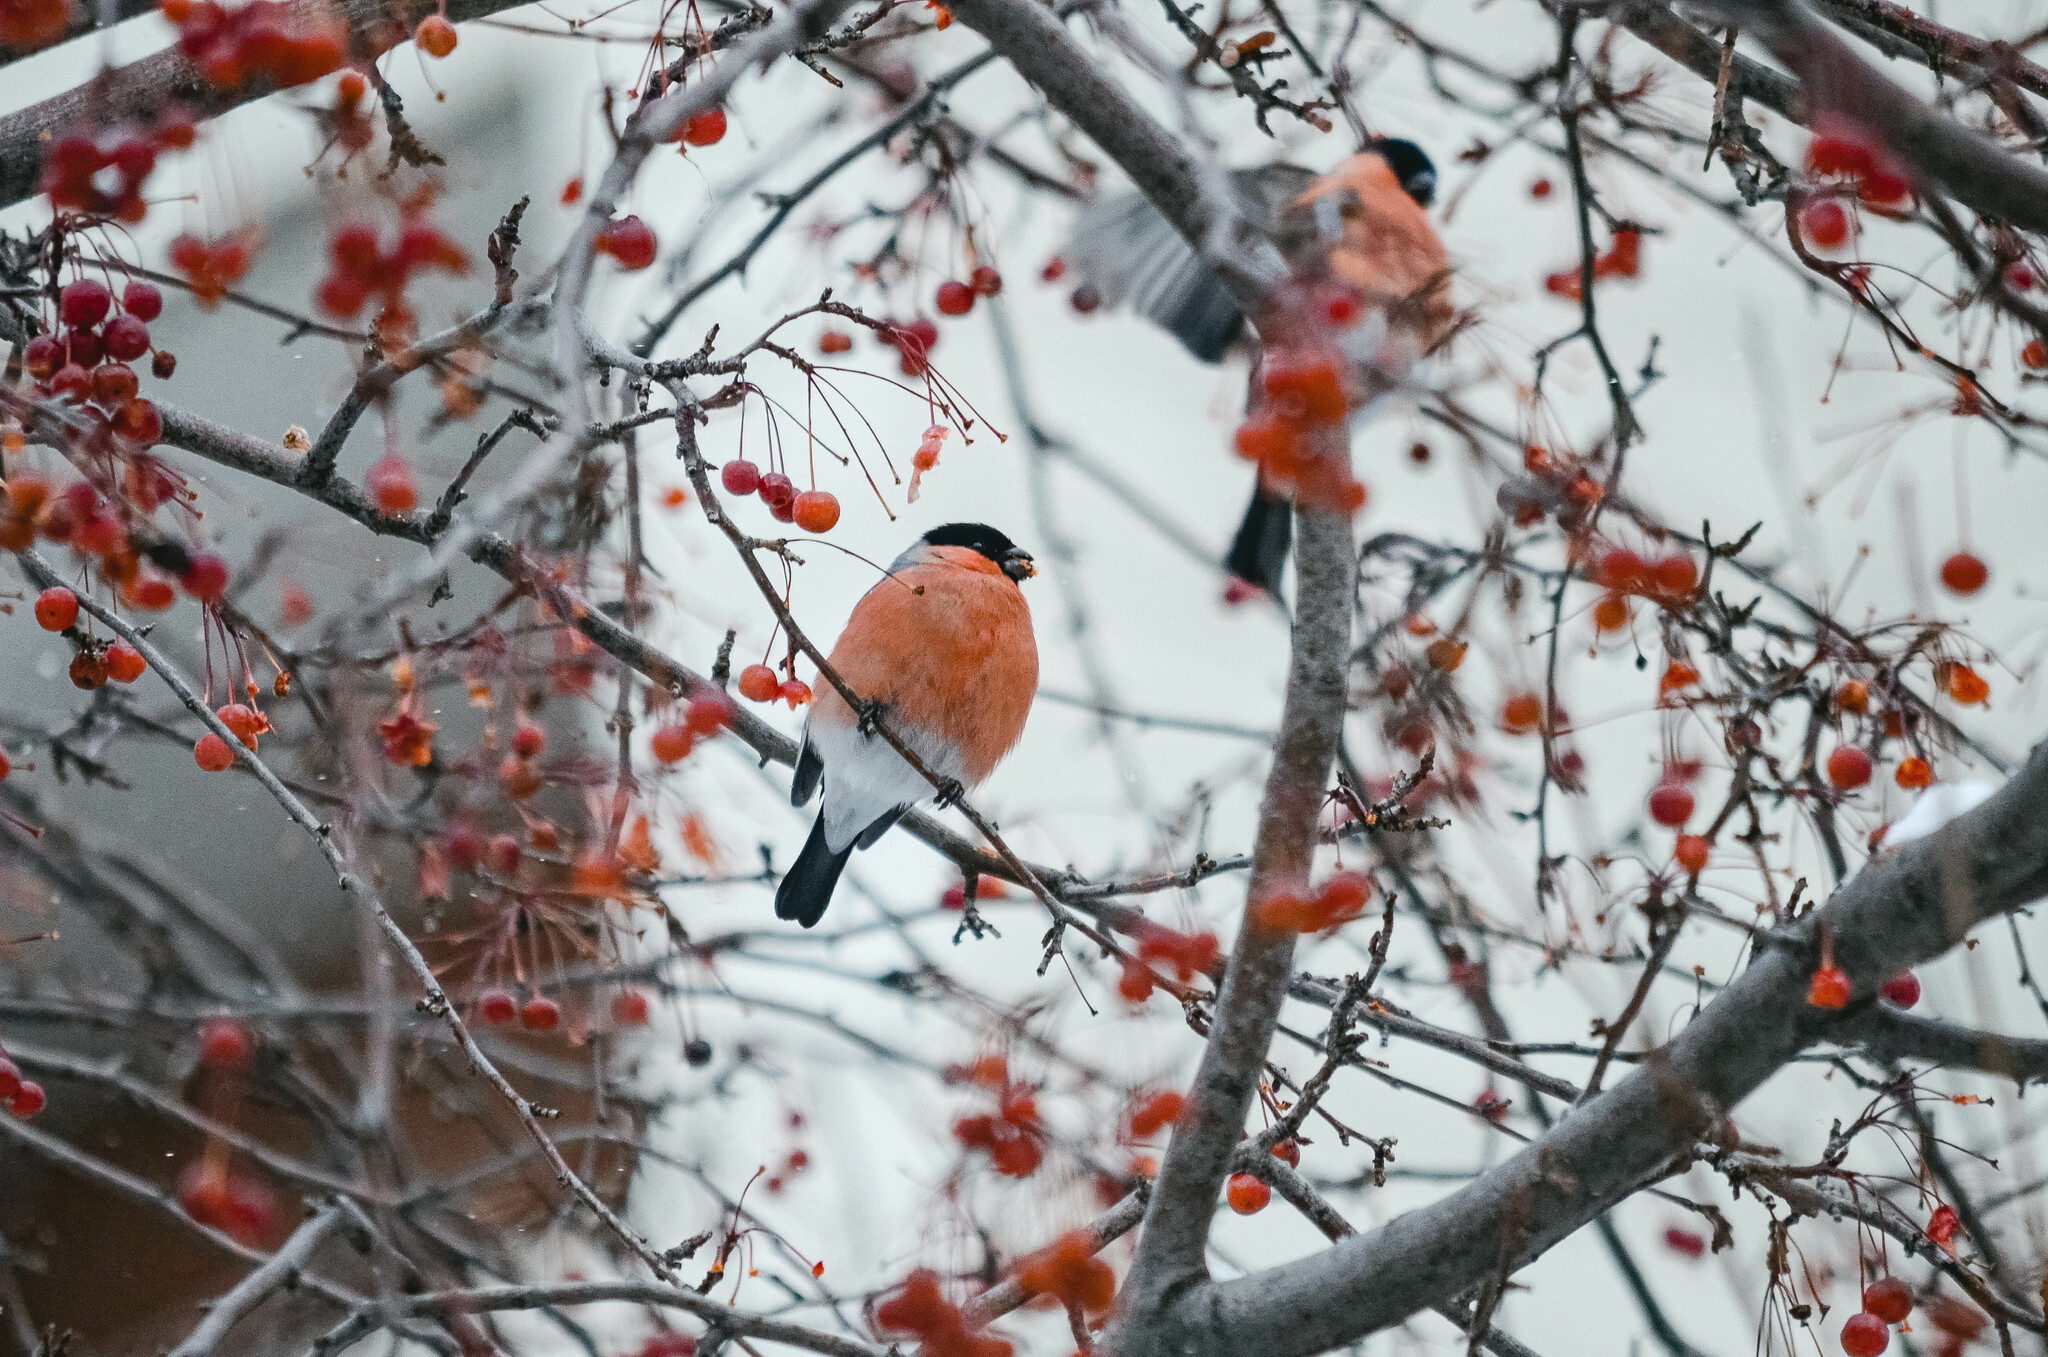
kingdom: Animalia
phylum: Chordata
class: Aves
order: Passeriformes
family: Fringillidae
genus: Pyrrhula
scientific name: Pyrrhula pyrrhula
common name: Eurasian bullfinch
